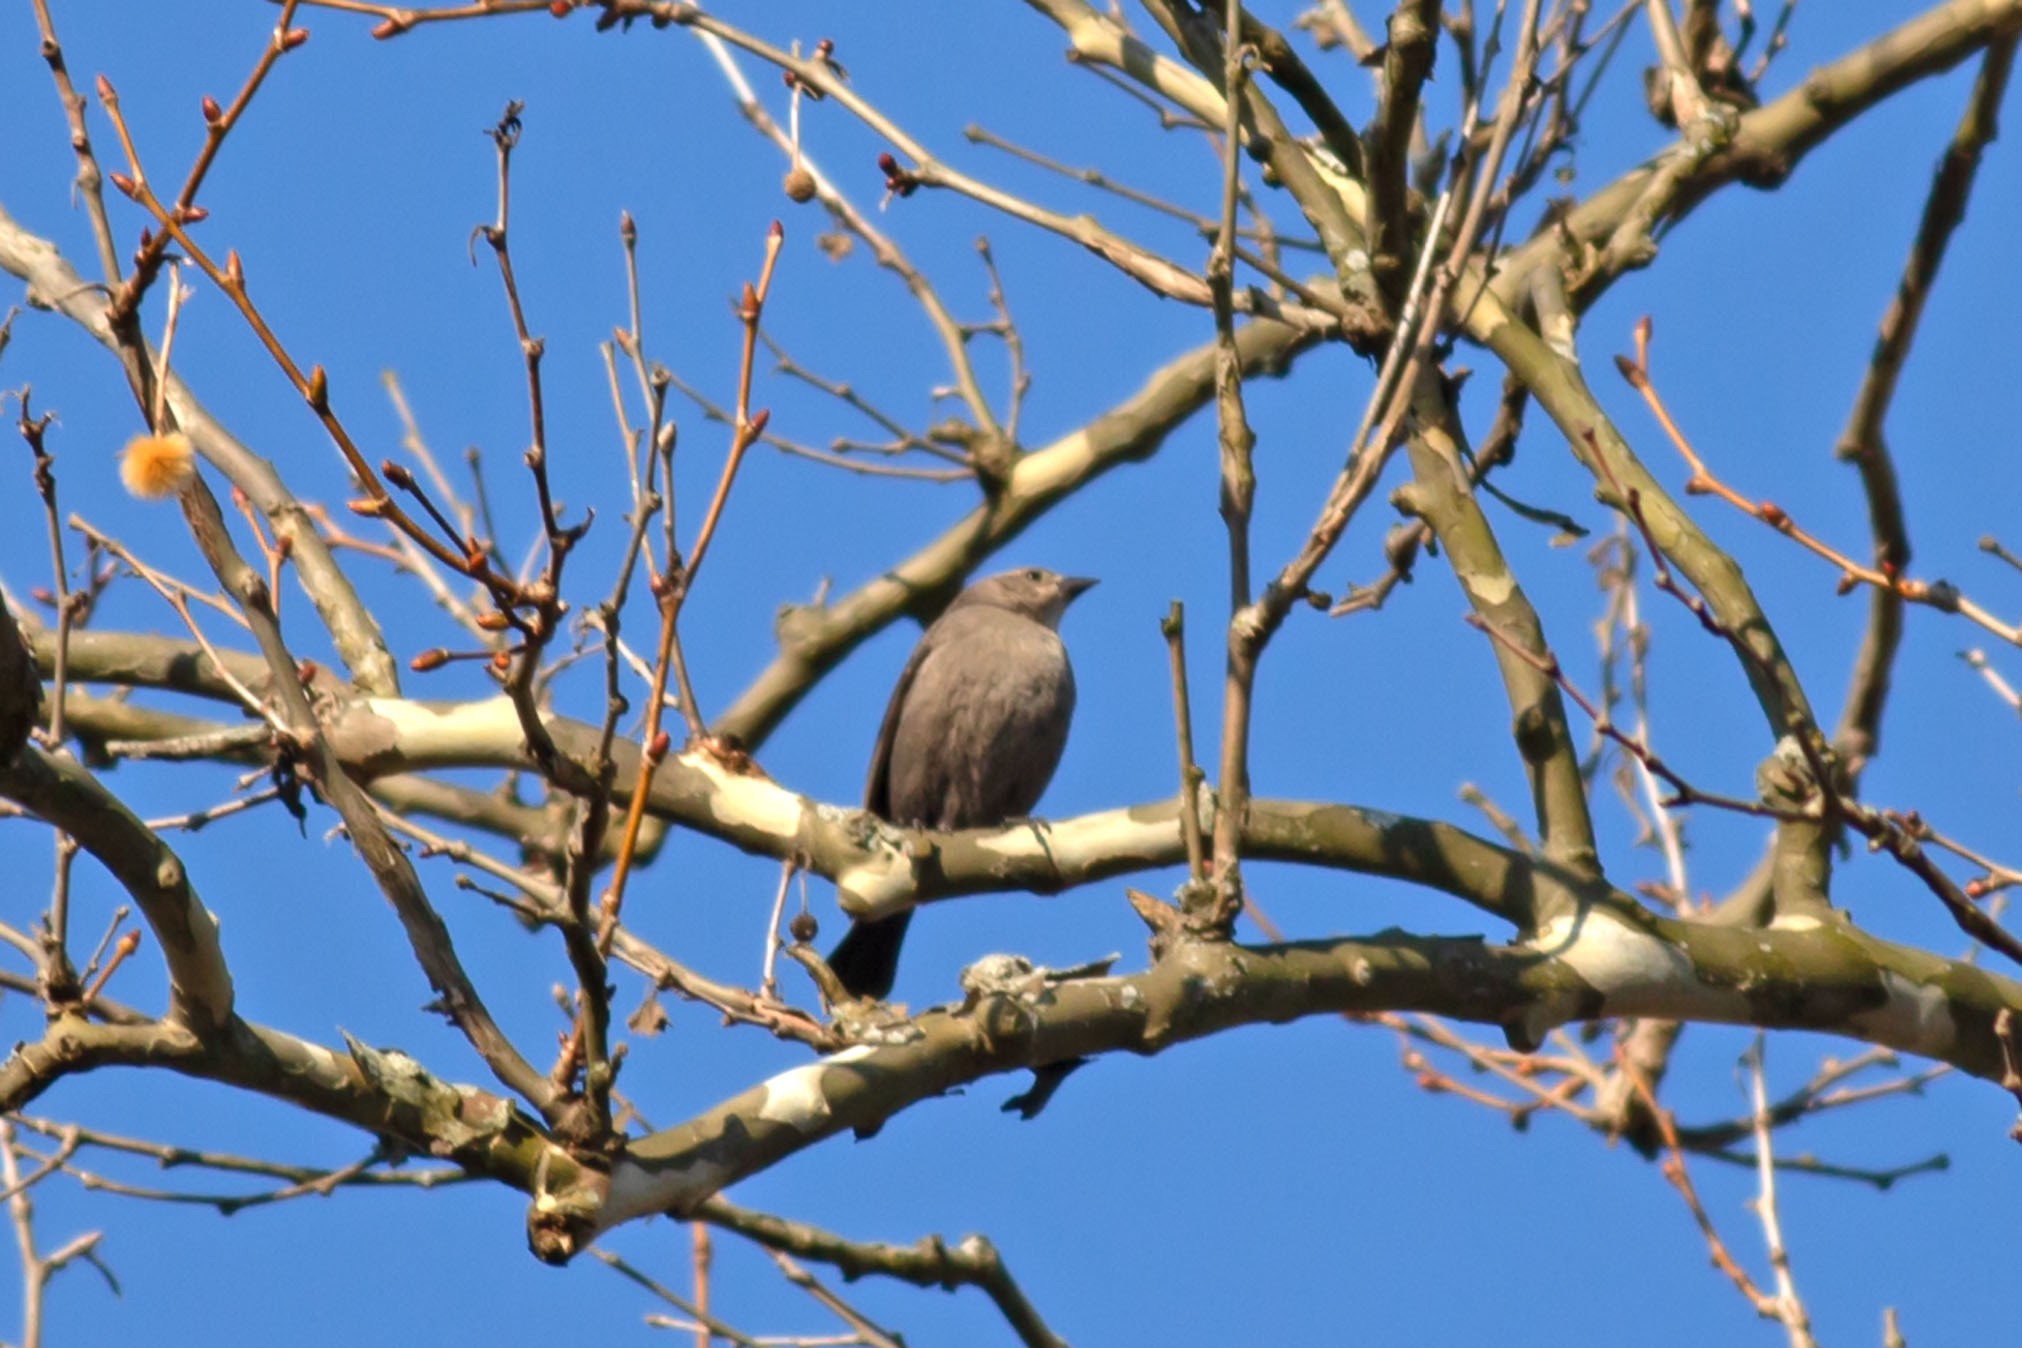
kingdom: Animalia
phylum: Chordata
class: Aves
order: Passeriformes
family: Icteridae
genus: Molothrus
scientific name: Molothrus ater
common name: Brown-headed cowbird
